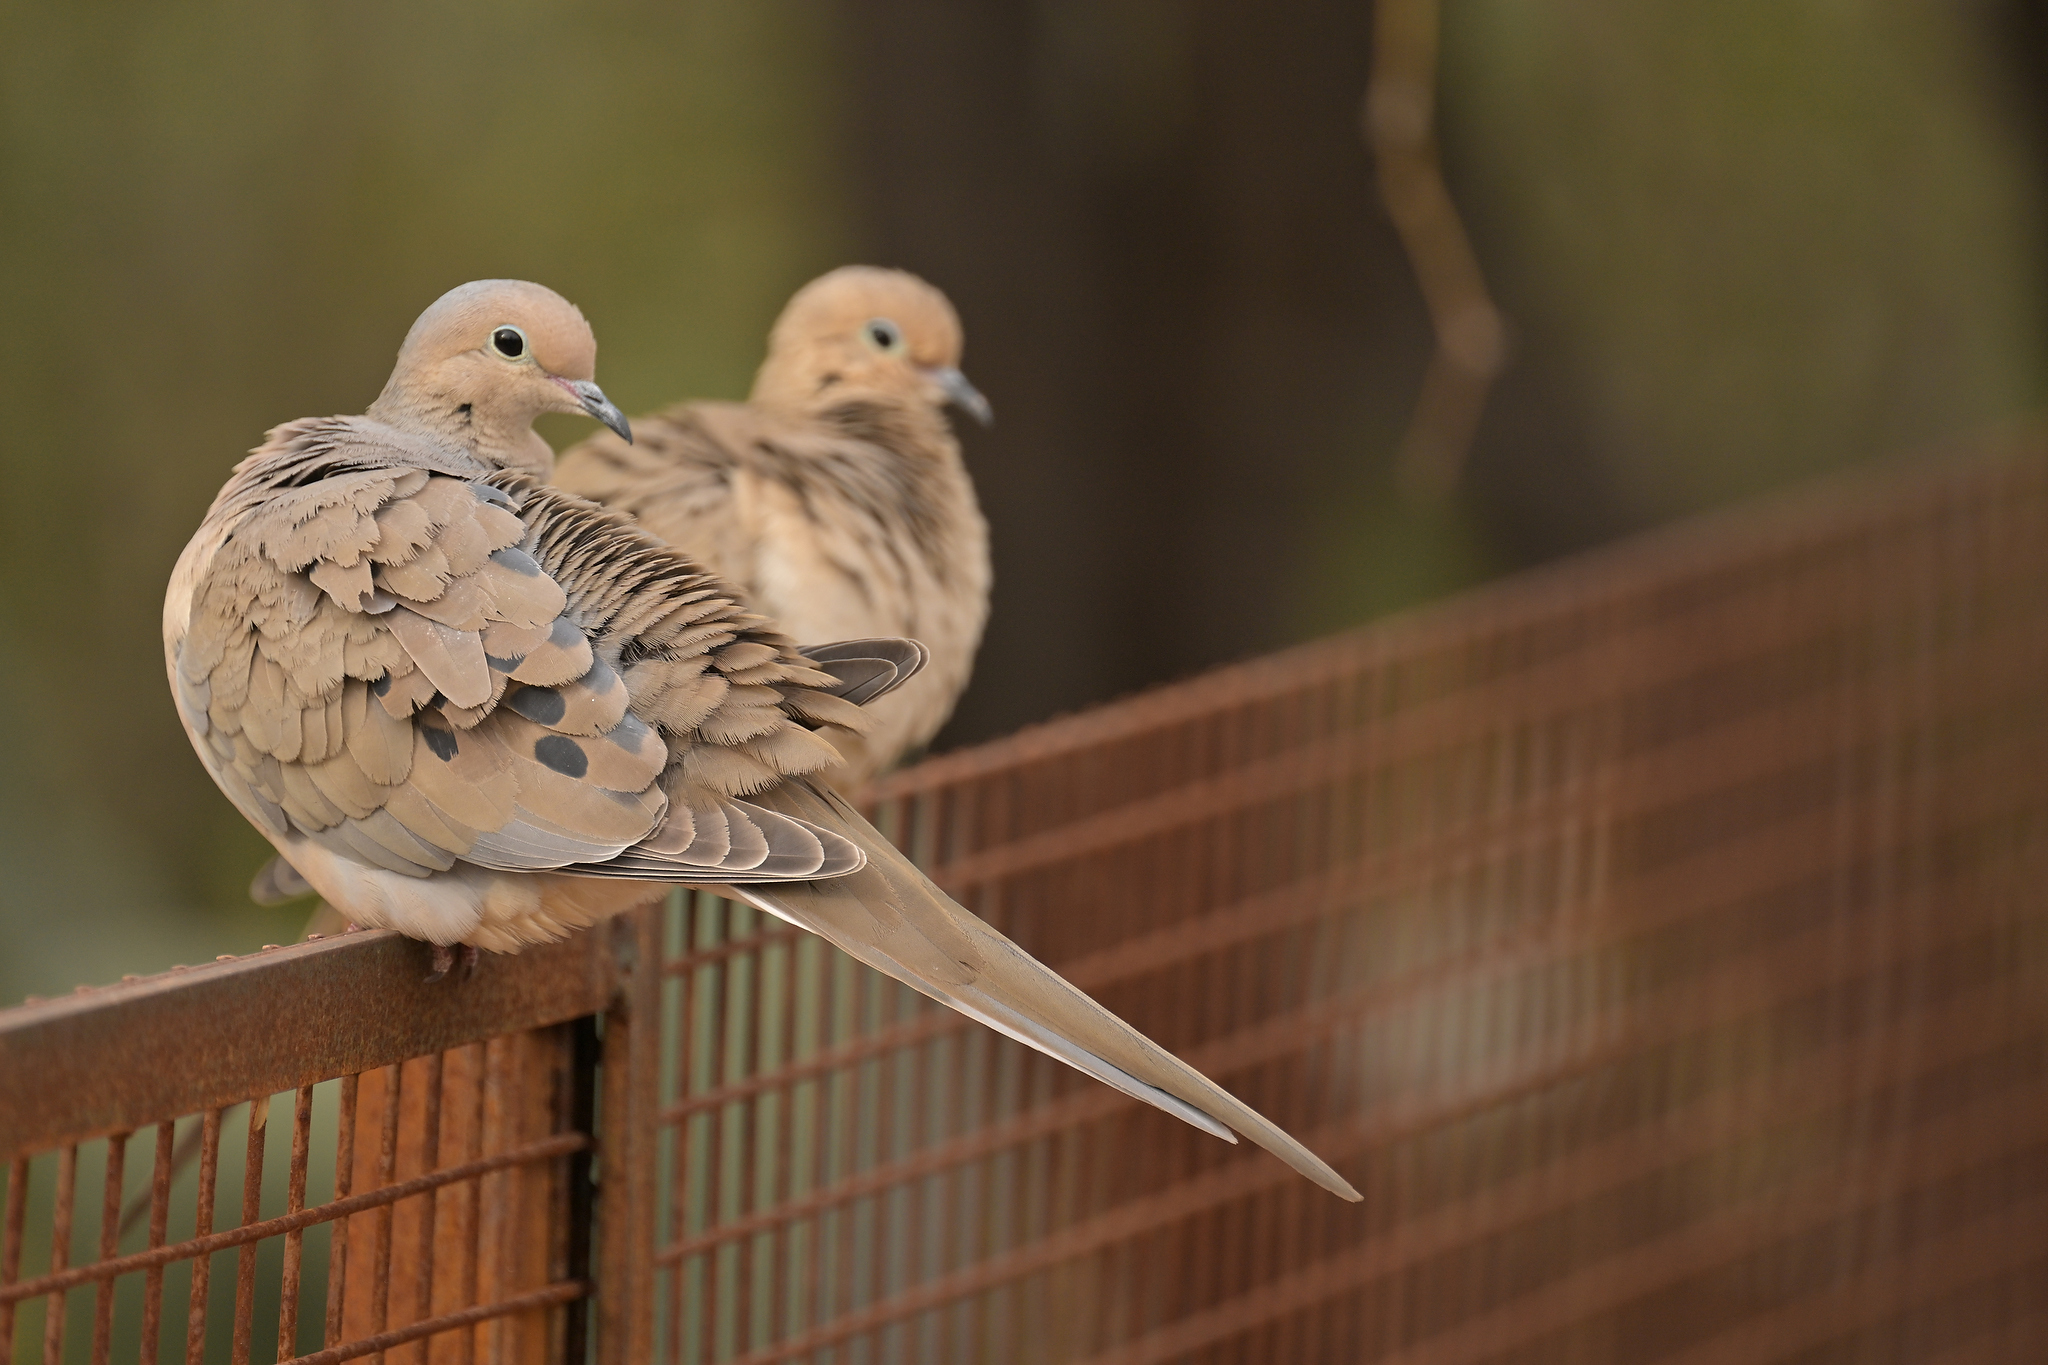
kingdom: Animalia
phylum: Chordata
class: Aves
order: Columbiformes
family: Columbidae
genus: Zenaida
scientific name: Zenaida macroura
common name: Mourning dove
